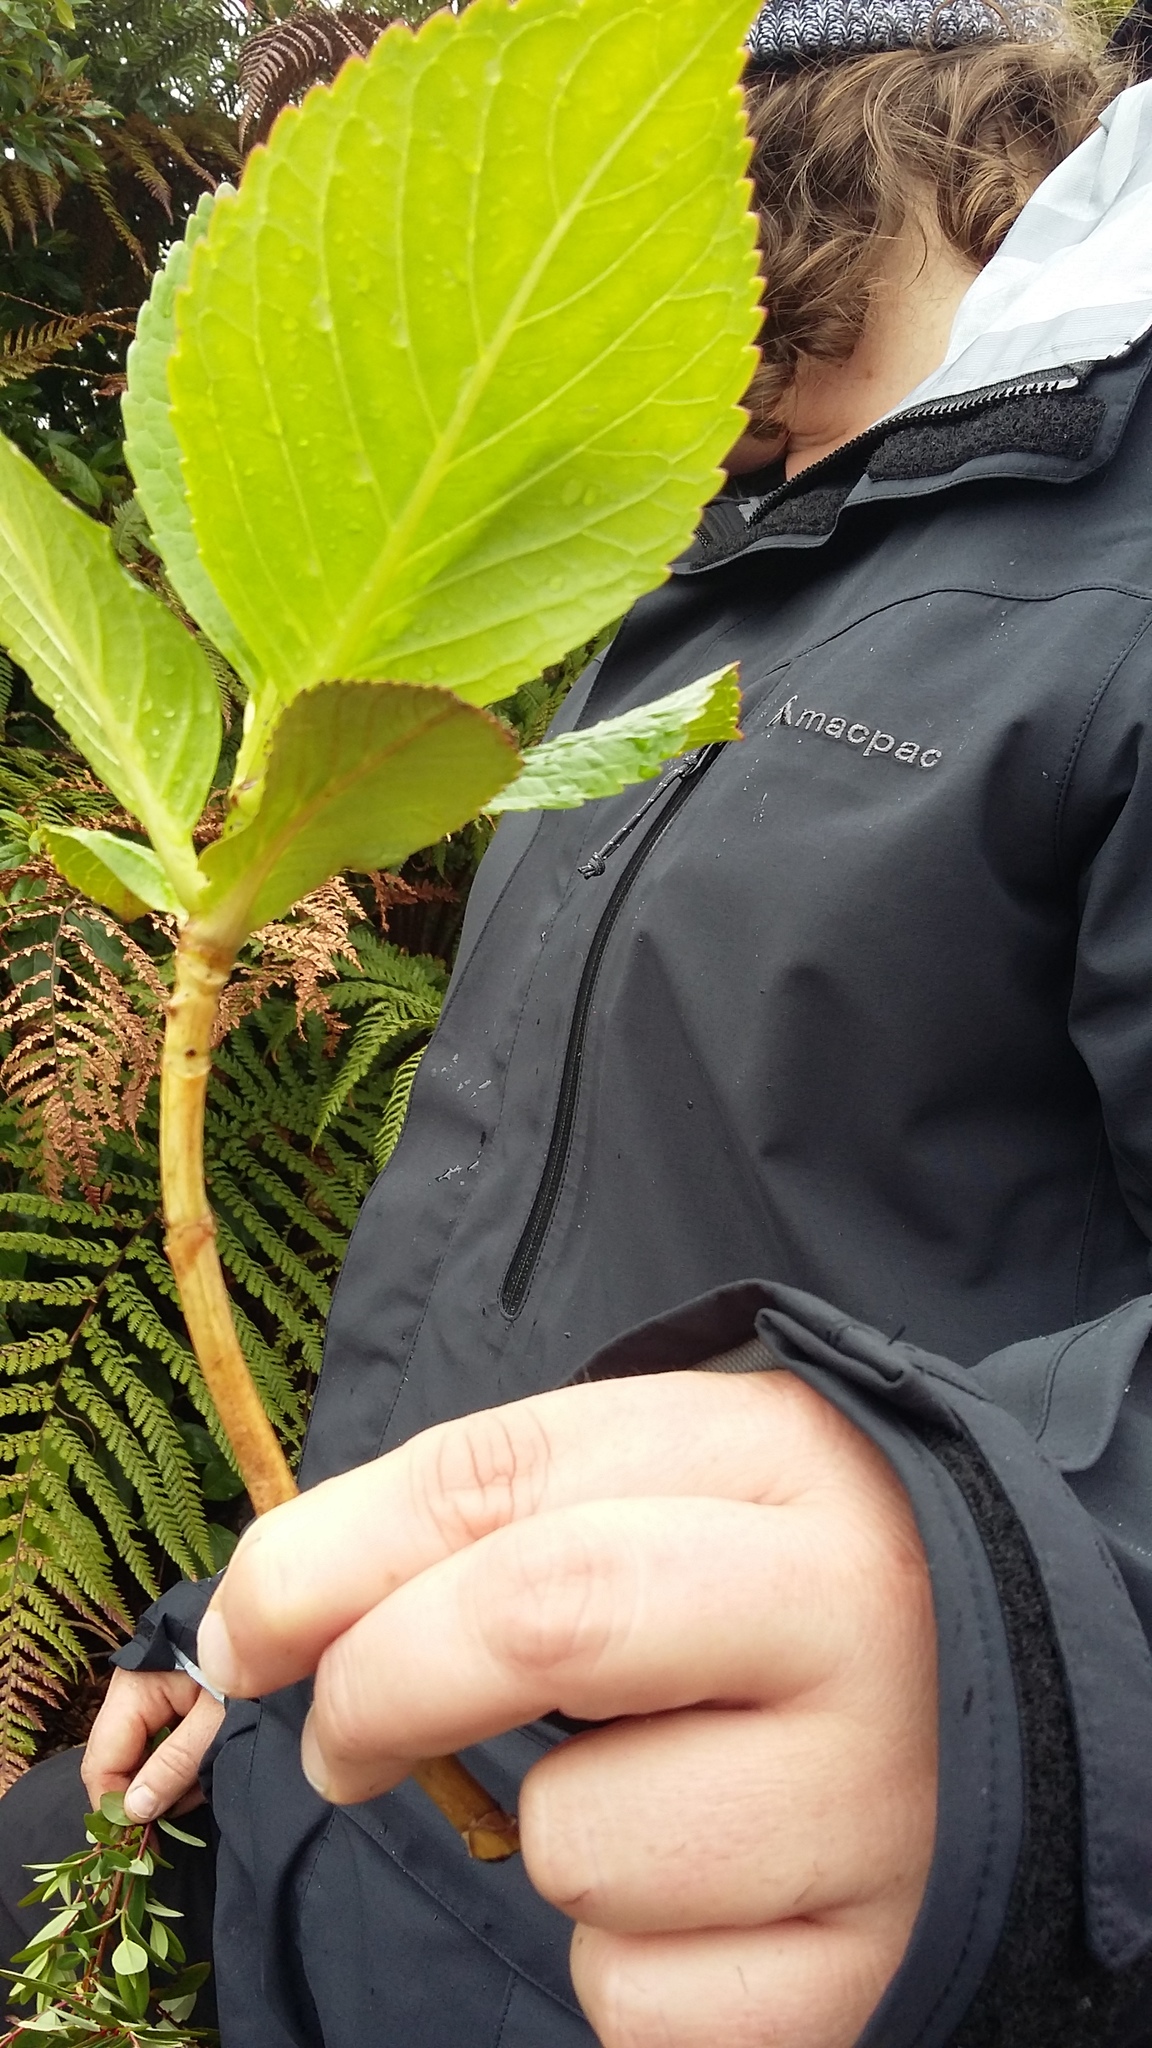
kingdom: Plantae
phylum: Tracheophyta
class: Magnoliopsida
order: Cornales
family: Hydrangeaceae
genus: Hydrangea
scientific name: Hydrangea macrophylla
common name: Hydrangea
